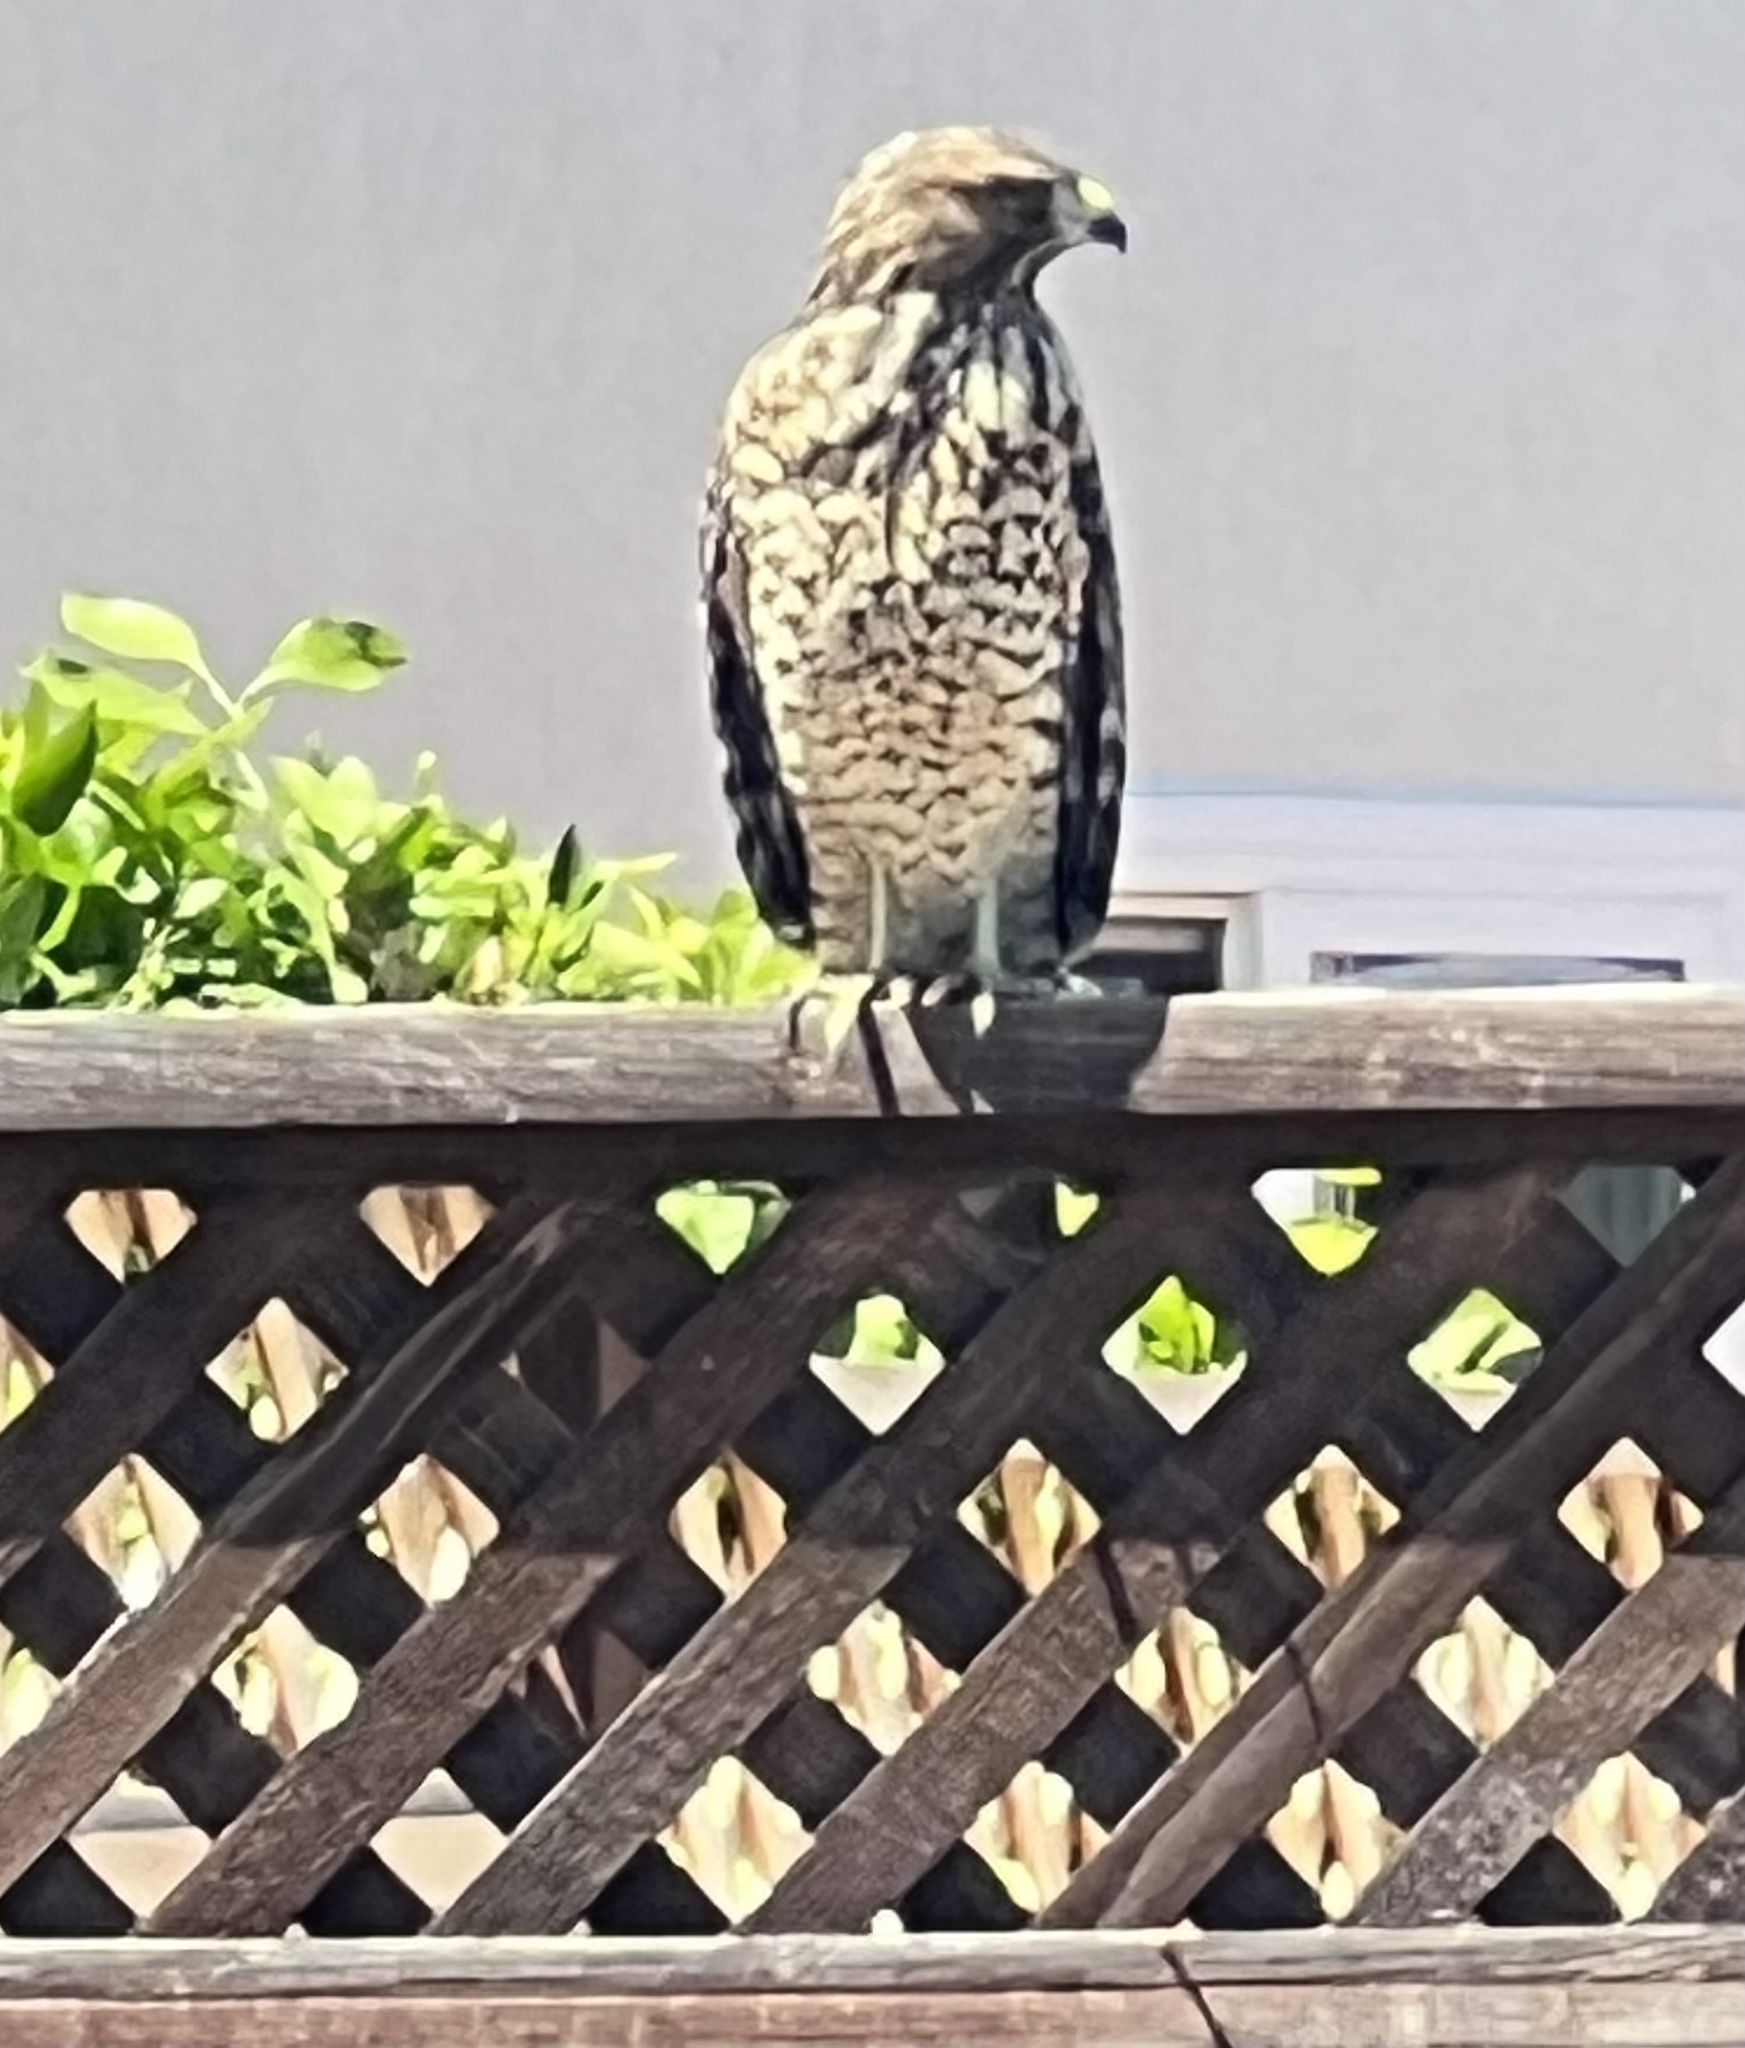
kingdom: Animalia
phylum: Chordata
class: Aves
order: Accipitriformes
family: Accipitridae
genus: Buteo
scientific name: Buteo lineatus
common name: Red-shouldered hawk
